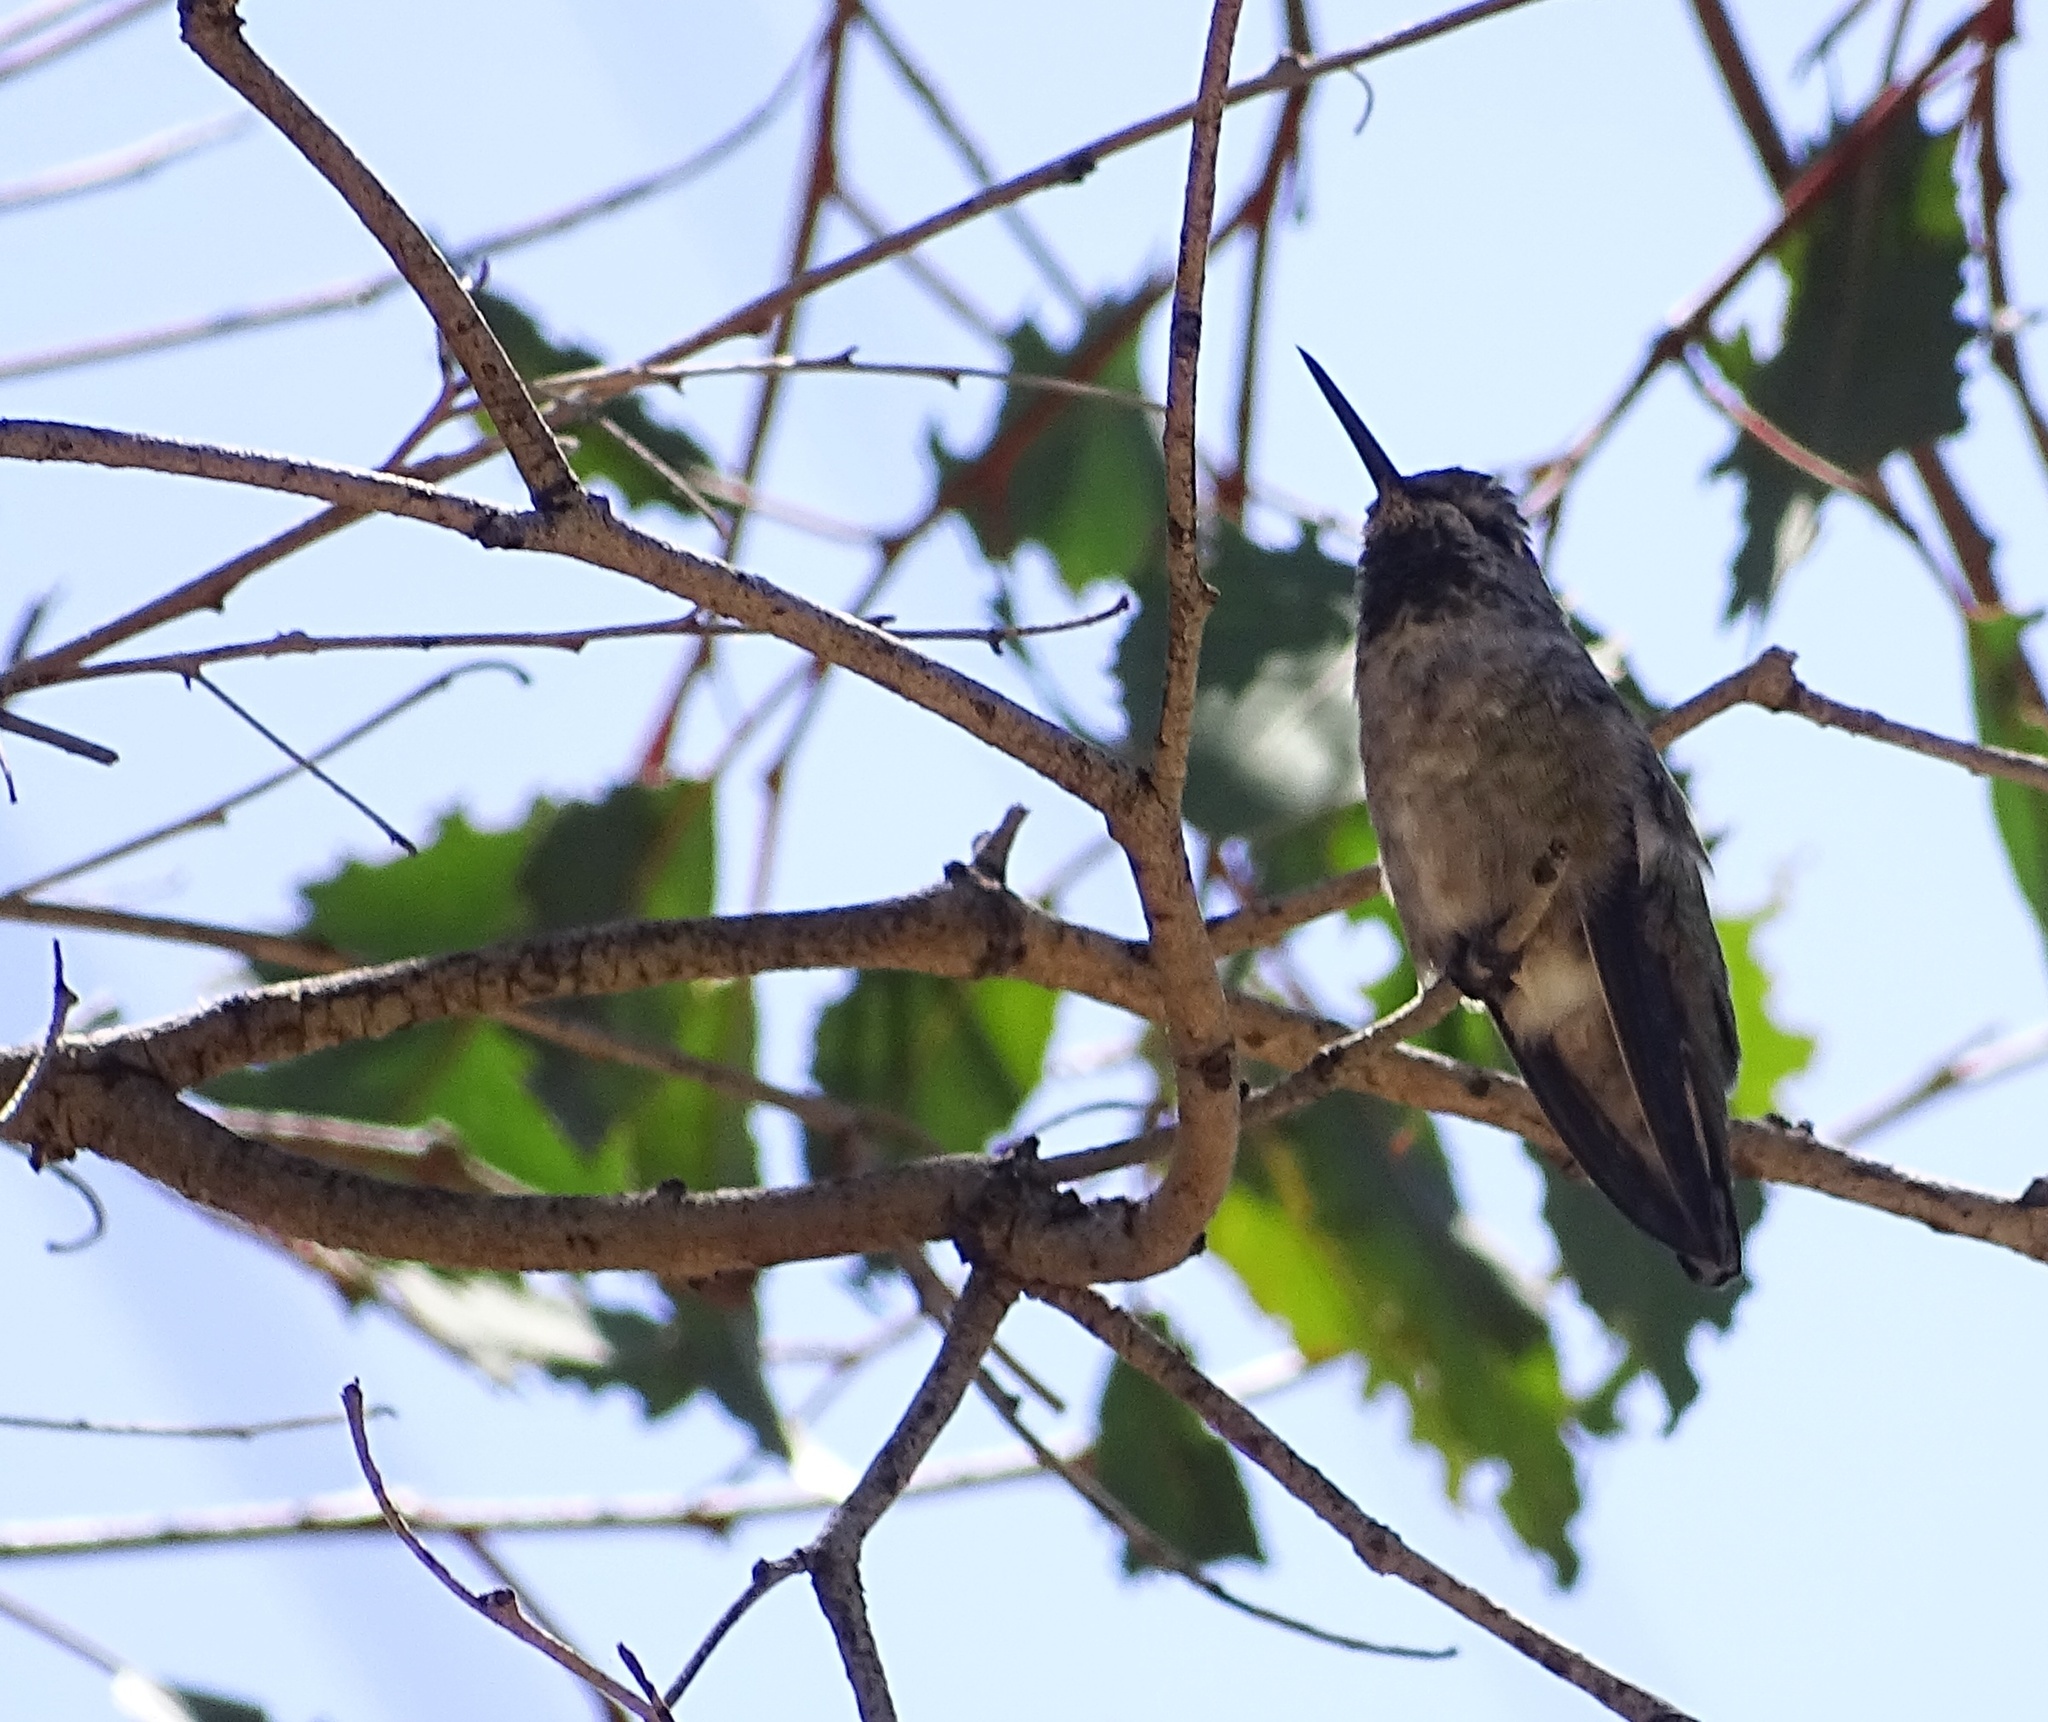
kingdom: Animalia
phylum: Chordata
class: Aves
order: Apodiformes
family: Trochilidae
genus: Calypte
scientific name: Calypte anna
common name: Anna's hummingbird
